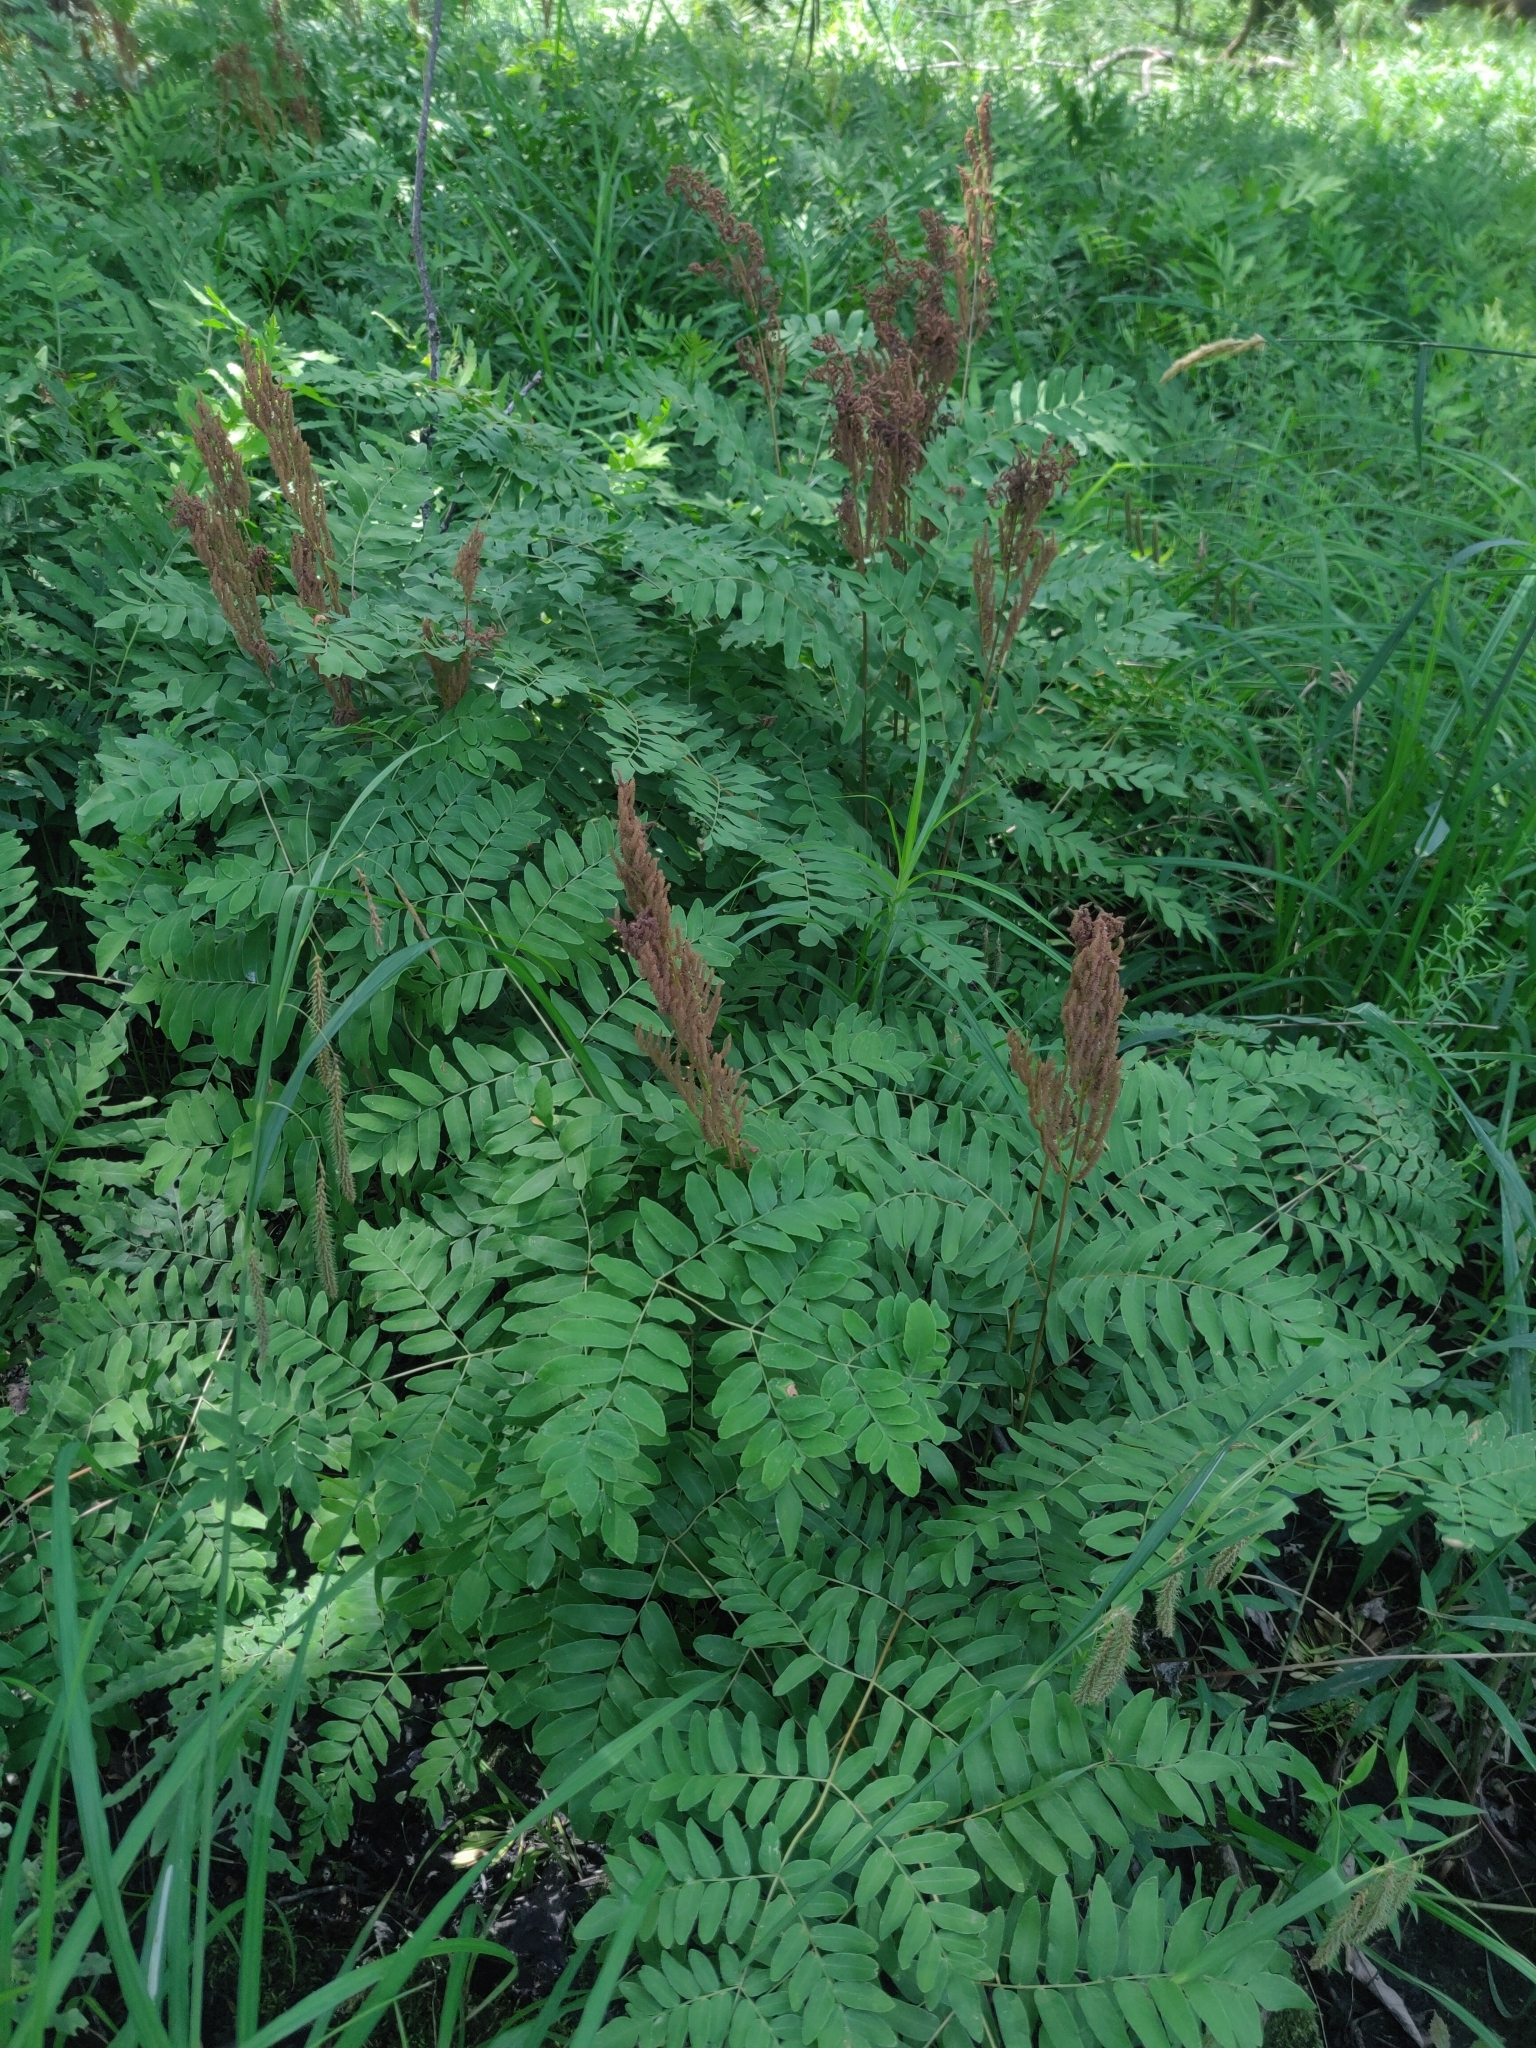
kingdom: Plantae
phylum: Tracheophyta
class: Polypodiopsida
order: Osmundales
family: Osmundaceae
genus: Osmunda
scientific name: Osmunda spectabilis
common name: American royal fern
